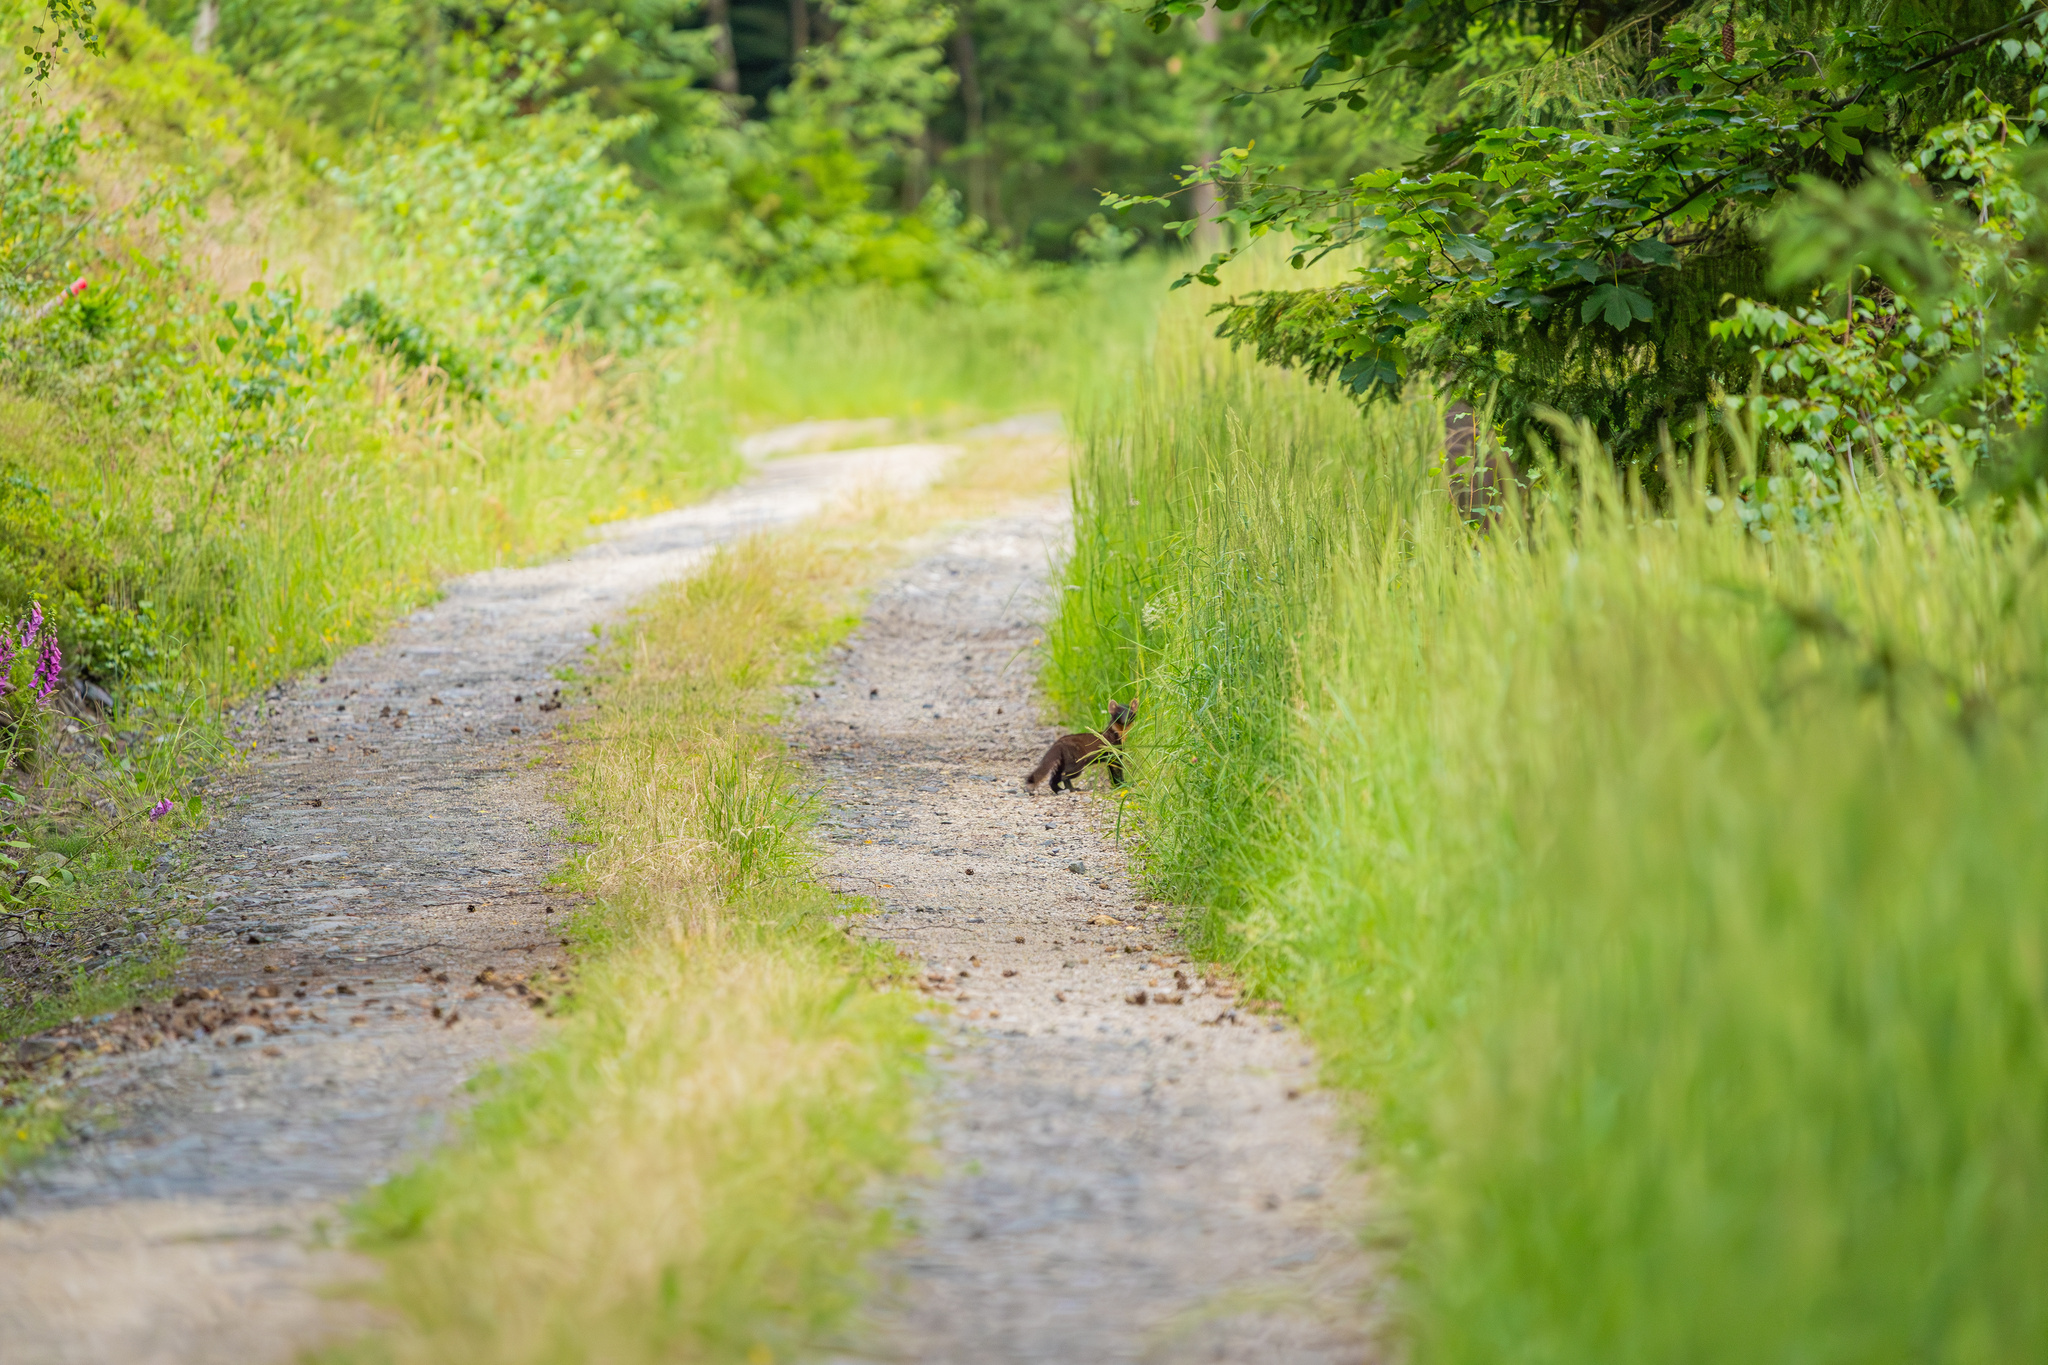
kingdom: Animalia
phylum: Chordata
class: Mammalia
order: Carnivora
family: Mustelidae
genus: Martes
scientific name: Martes martes
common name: European pine marten
